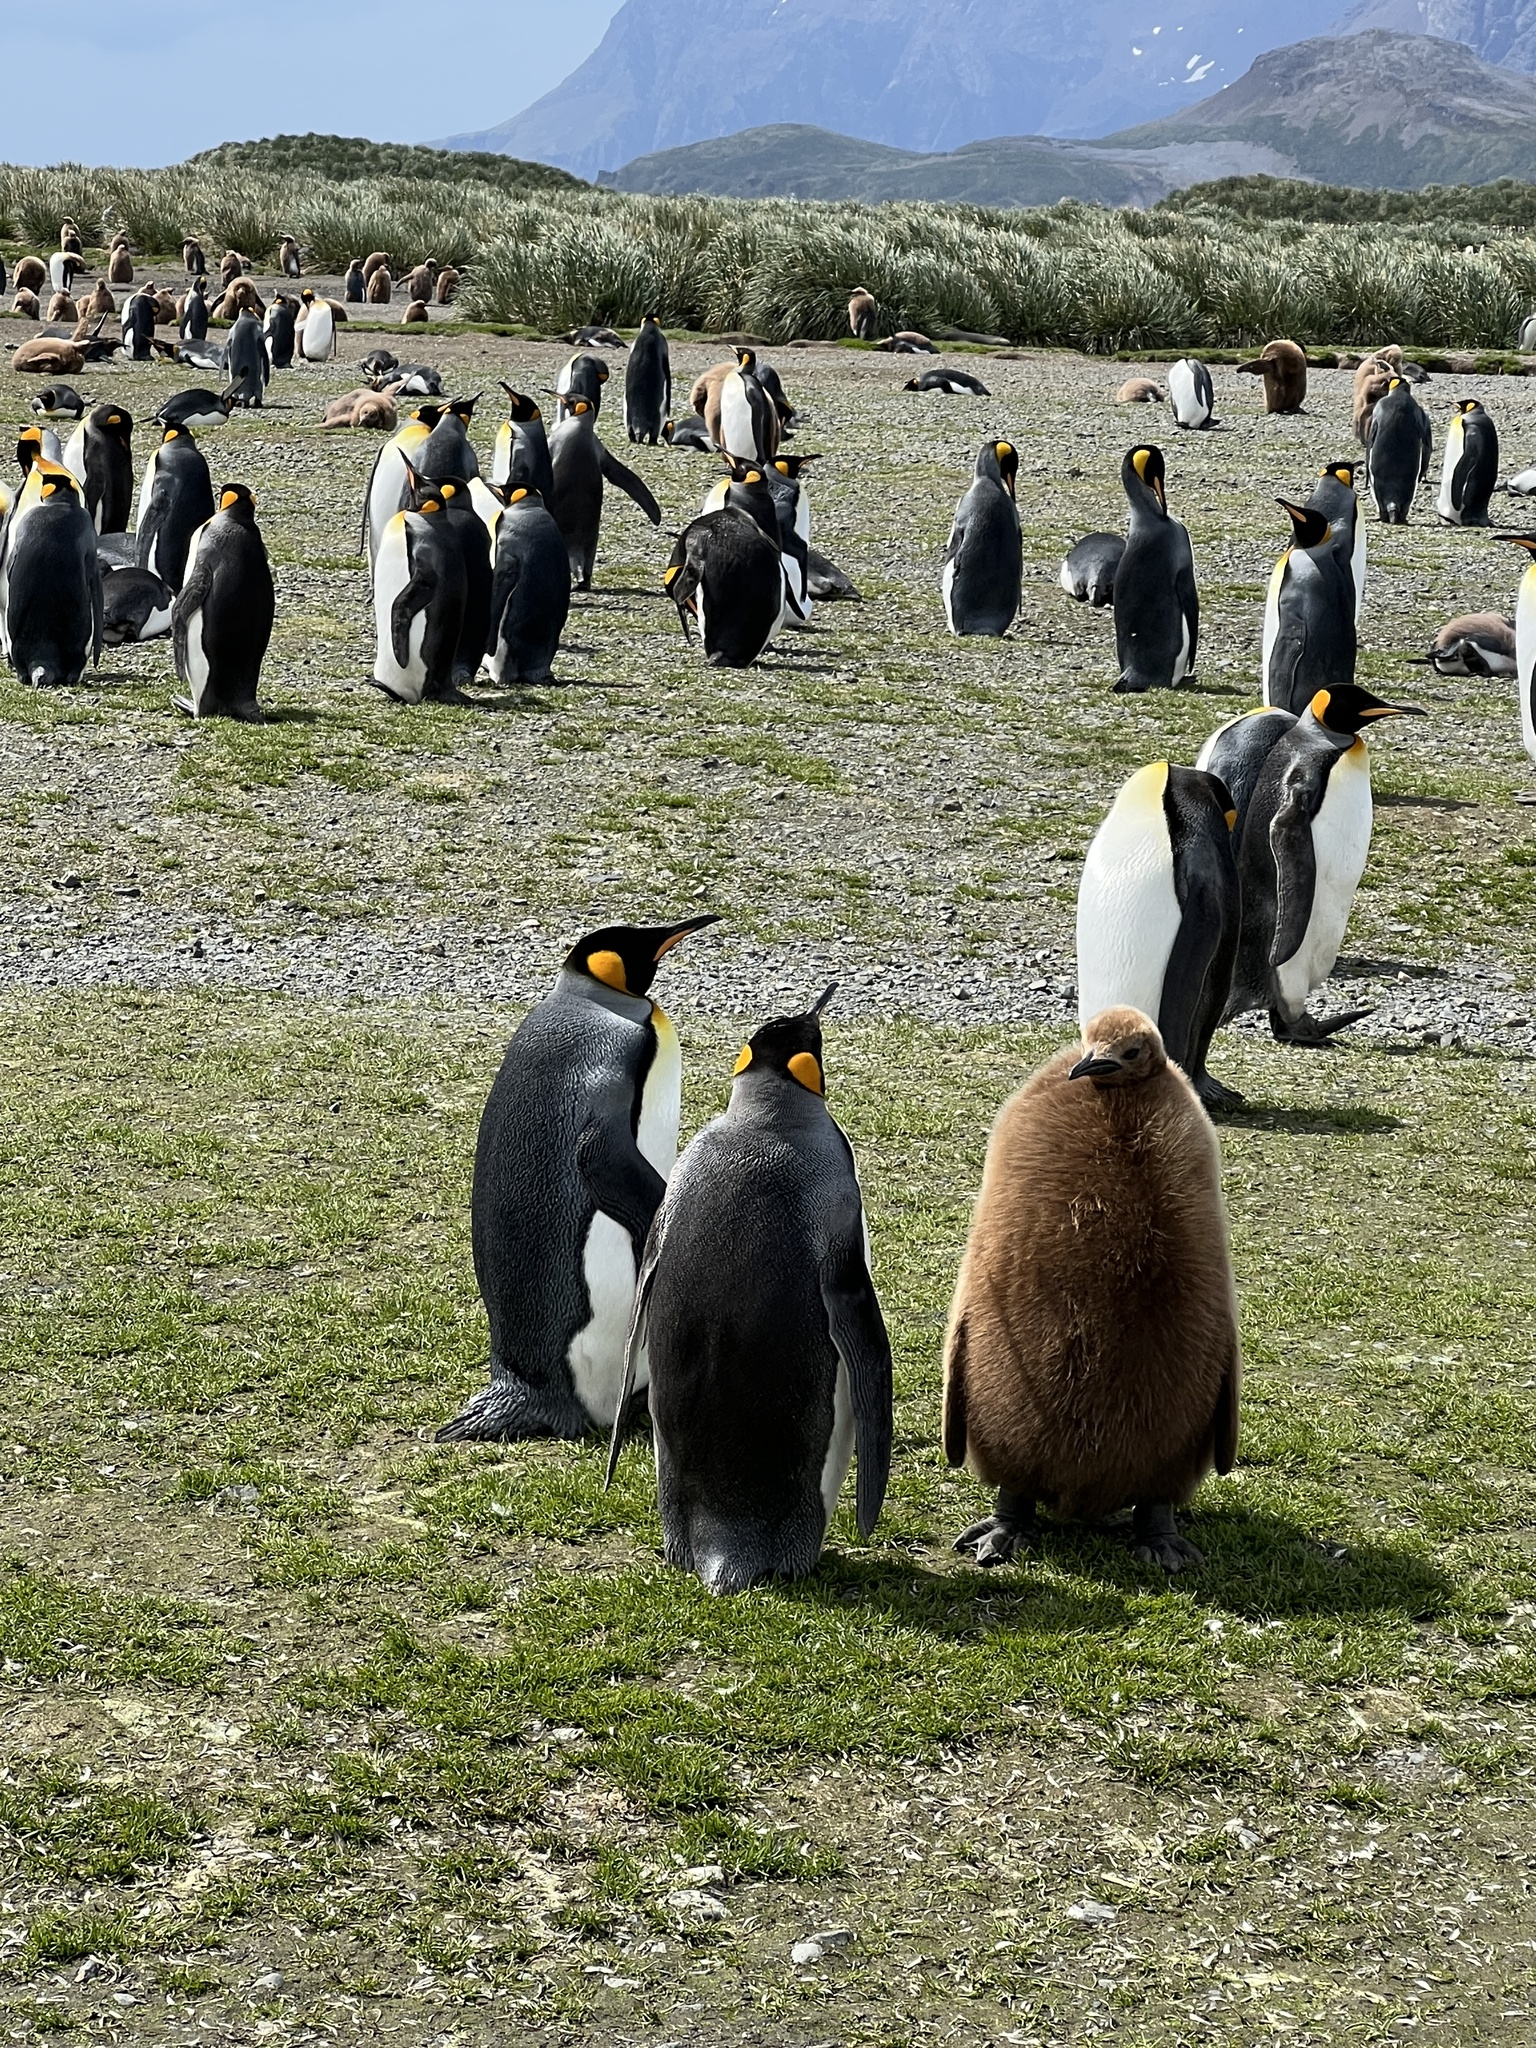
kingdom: Animalia
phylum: Chordata
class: Aves
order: Sphenisciformes
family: Spheniscidae
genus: Aptenodytes
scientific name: Aptenodytes patagonicus
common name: King penguin
